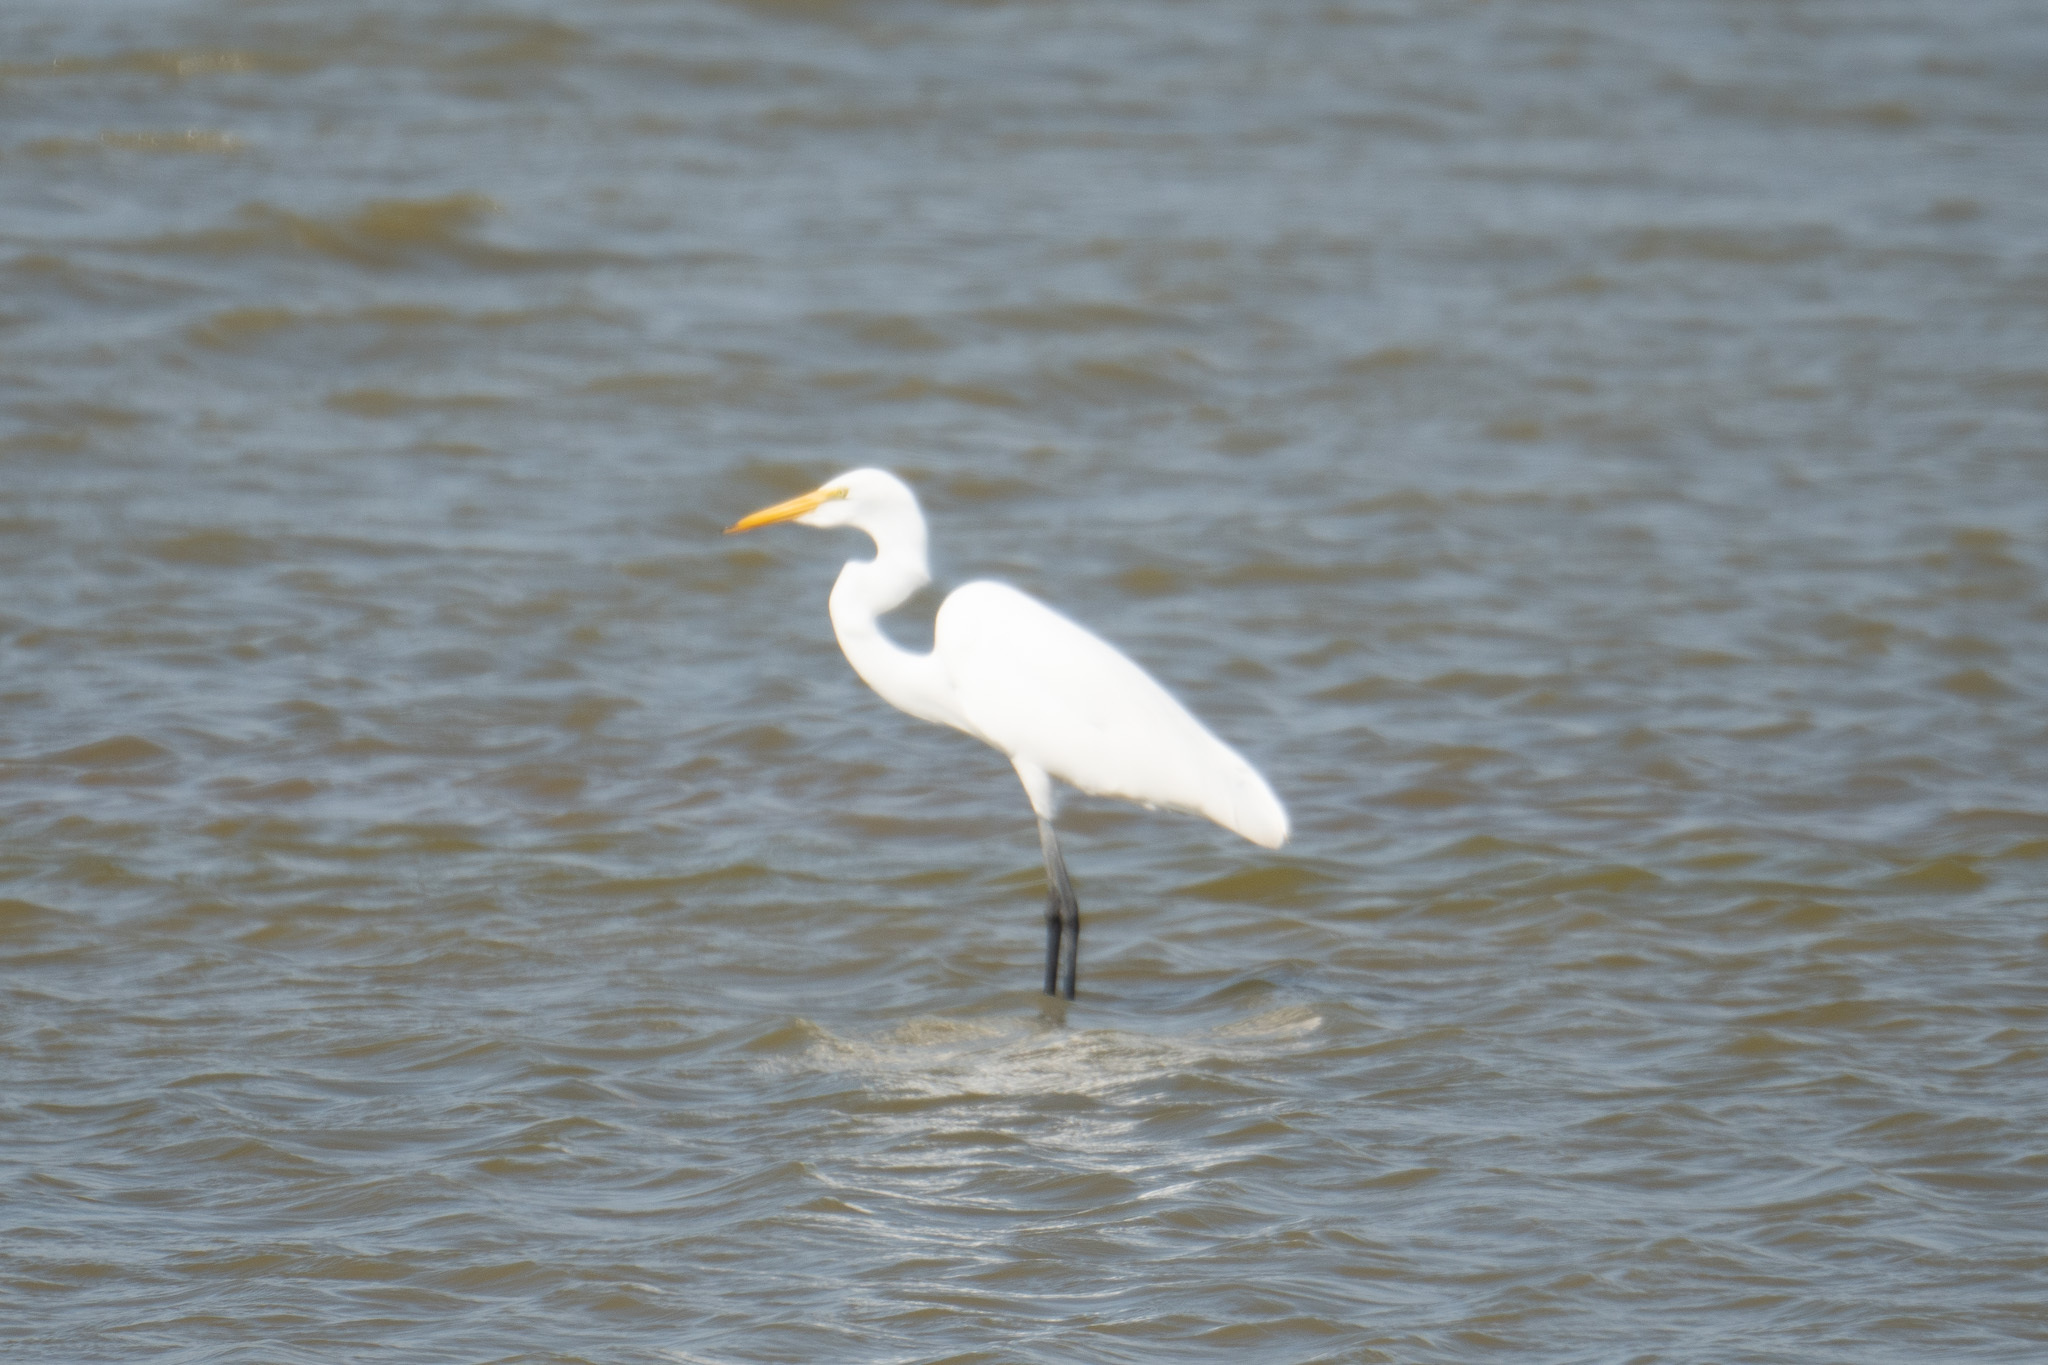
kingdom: Animalia
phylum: Chordata
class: Aves
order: Pelecaniformes
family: Ardeidae
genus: Ardea
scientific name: Ardea alba
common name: Great egret
